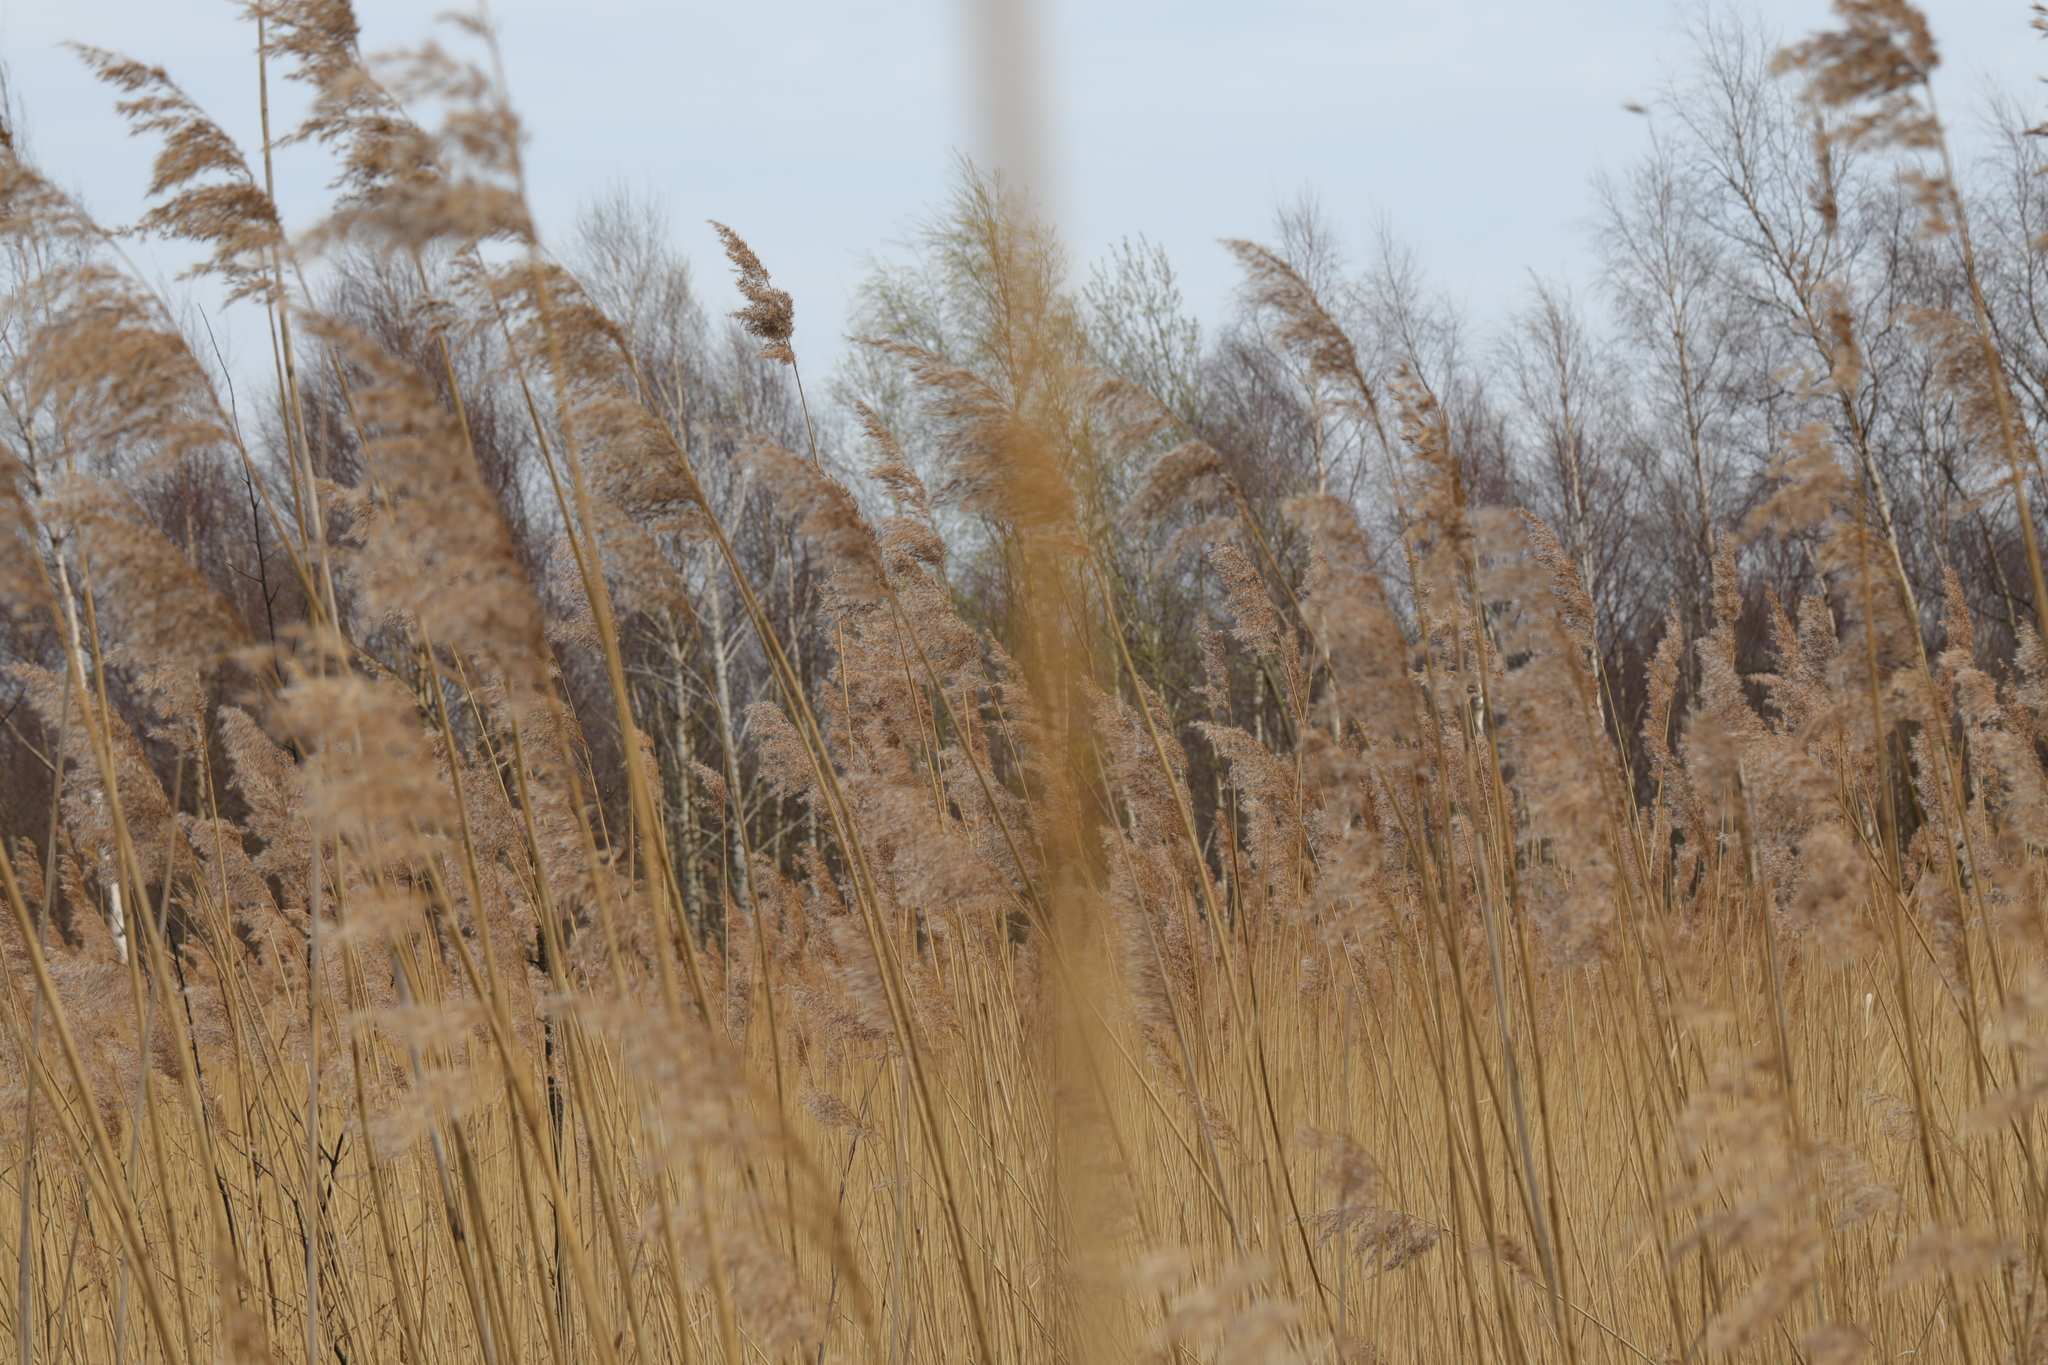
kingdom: Plantae
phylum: Tracheophyta
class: Liliopsida
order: Poales
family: Poaceae
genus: Phragmites
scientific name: Phragmites australis
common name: Common reed
